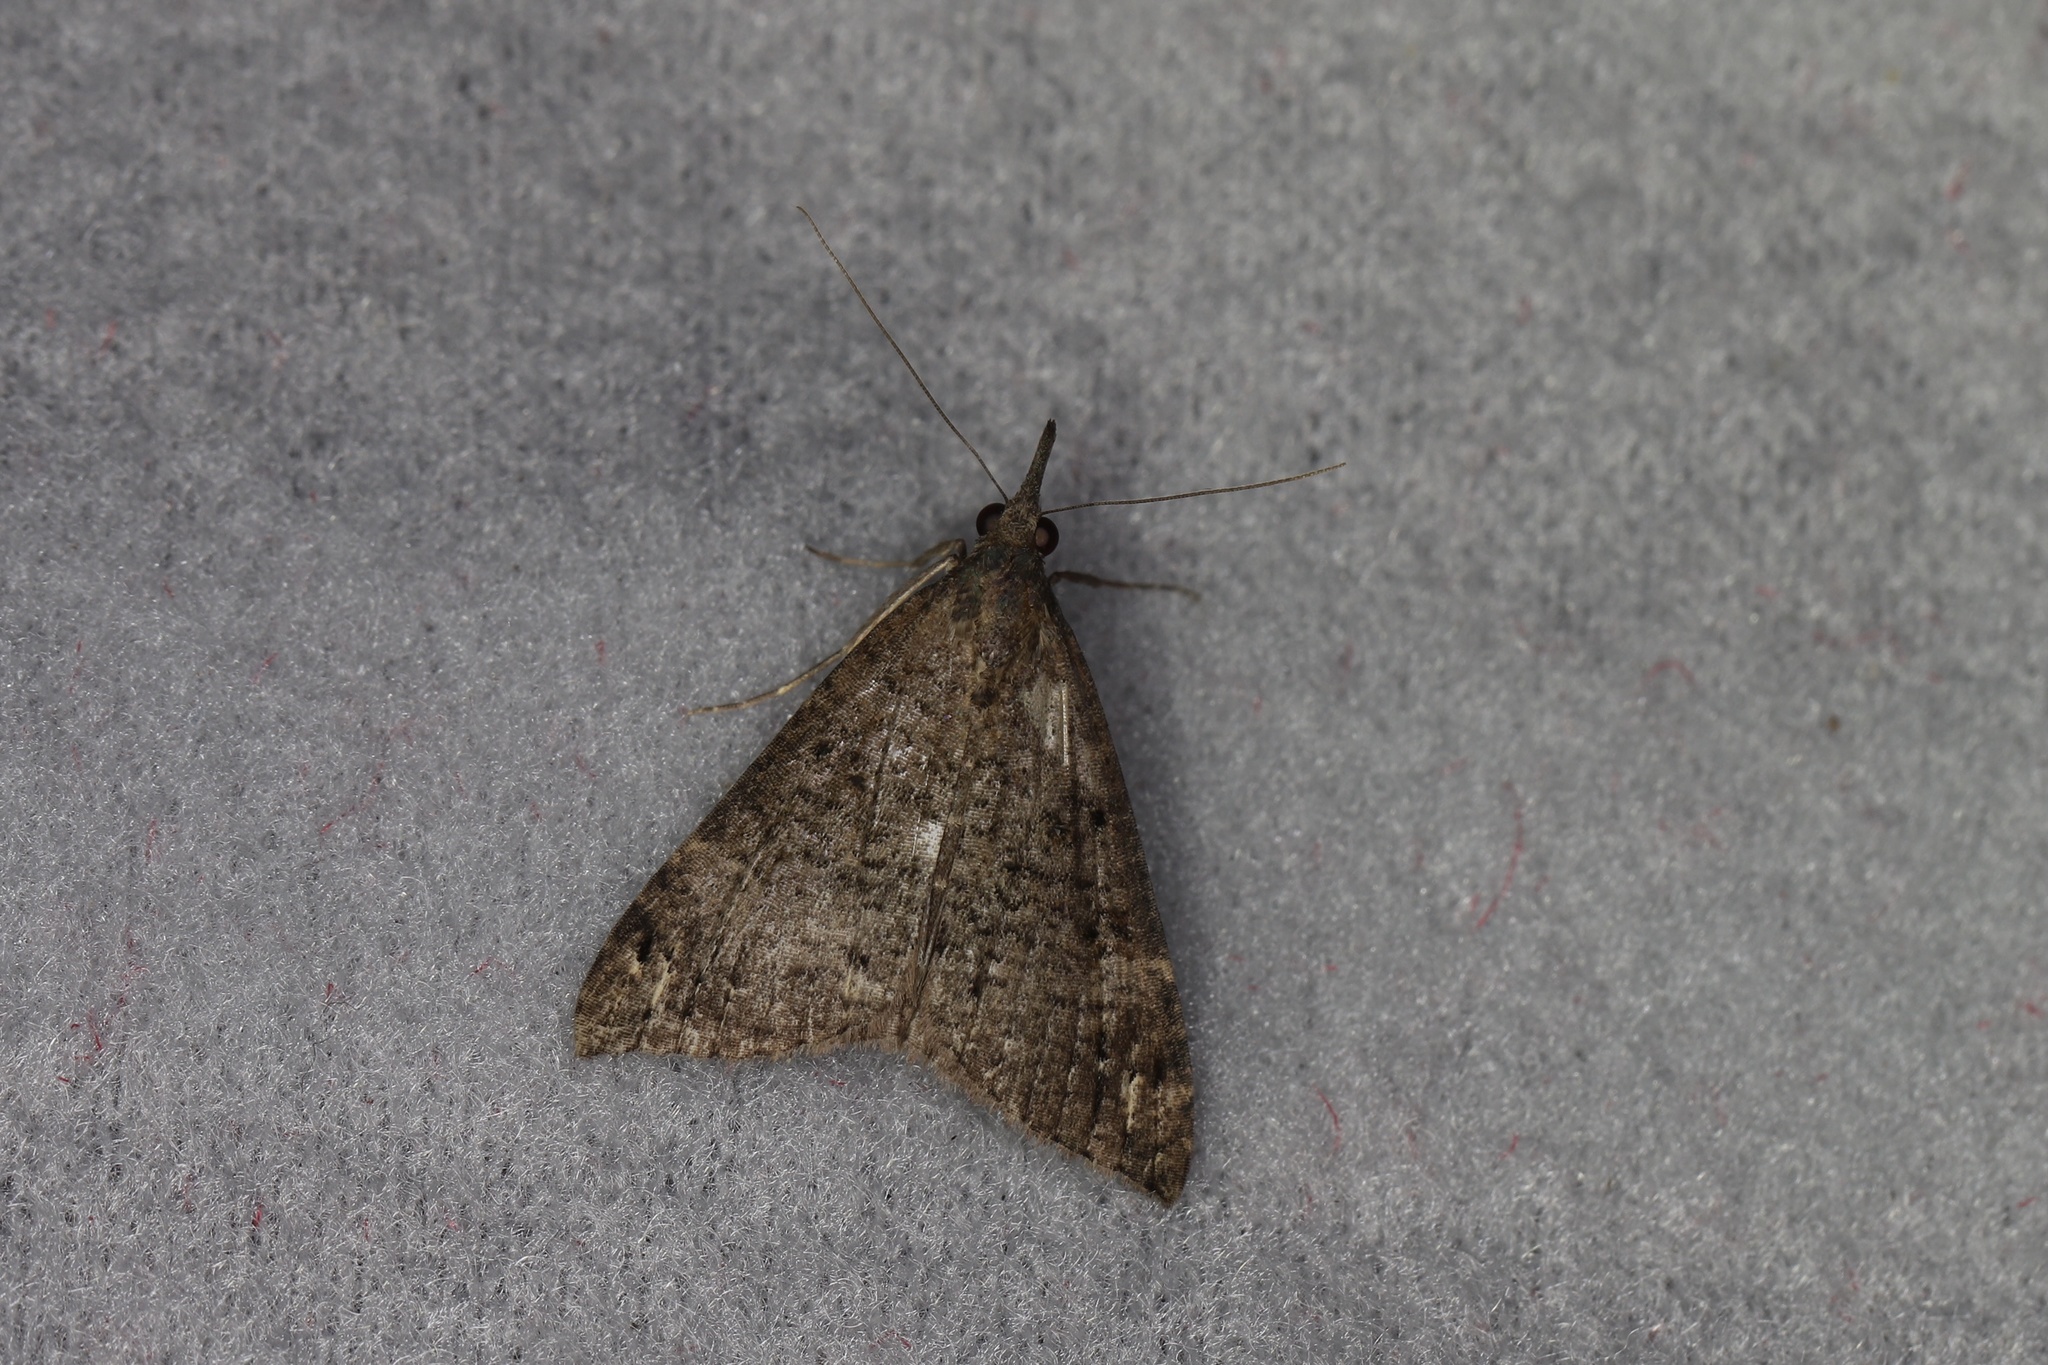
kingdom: Animalia
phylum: Arthropoda
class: Insecta
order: Lepidoptera
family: Erebidae
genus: Hypena
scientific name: Hypena obsitalis
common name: Bloxworth snout
